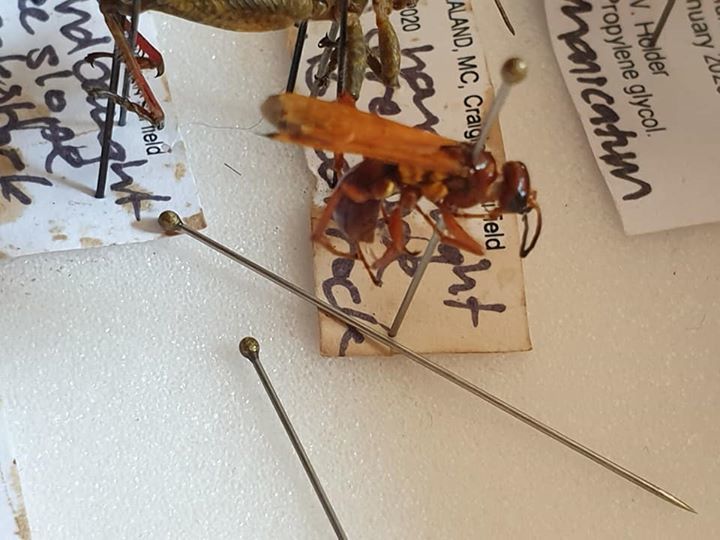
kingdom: Animalia
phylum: Arthropoda
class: Insecta
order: Hymenoptera
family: Pompilidae
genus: Sphictostethus
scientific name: Sphictostethus nitidus
